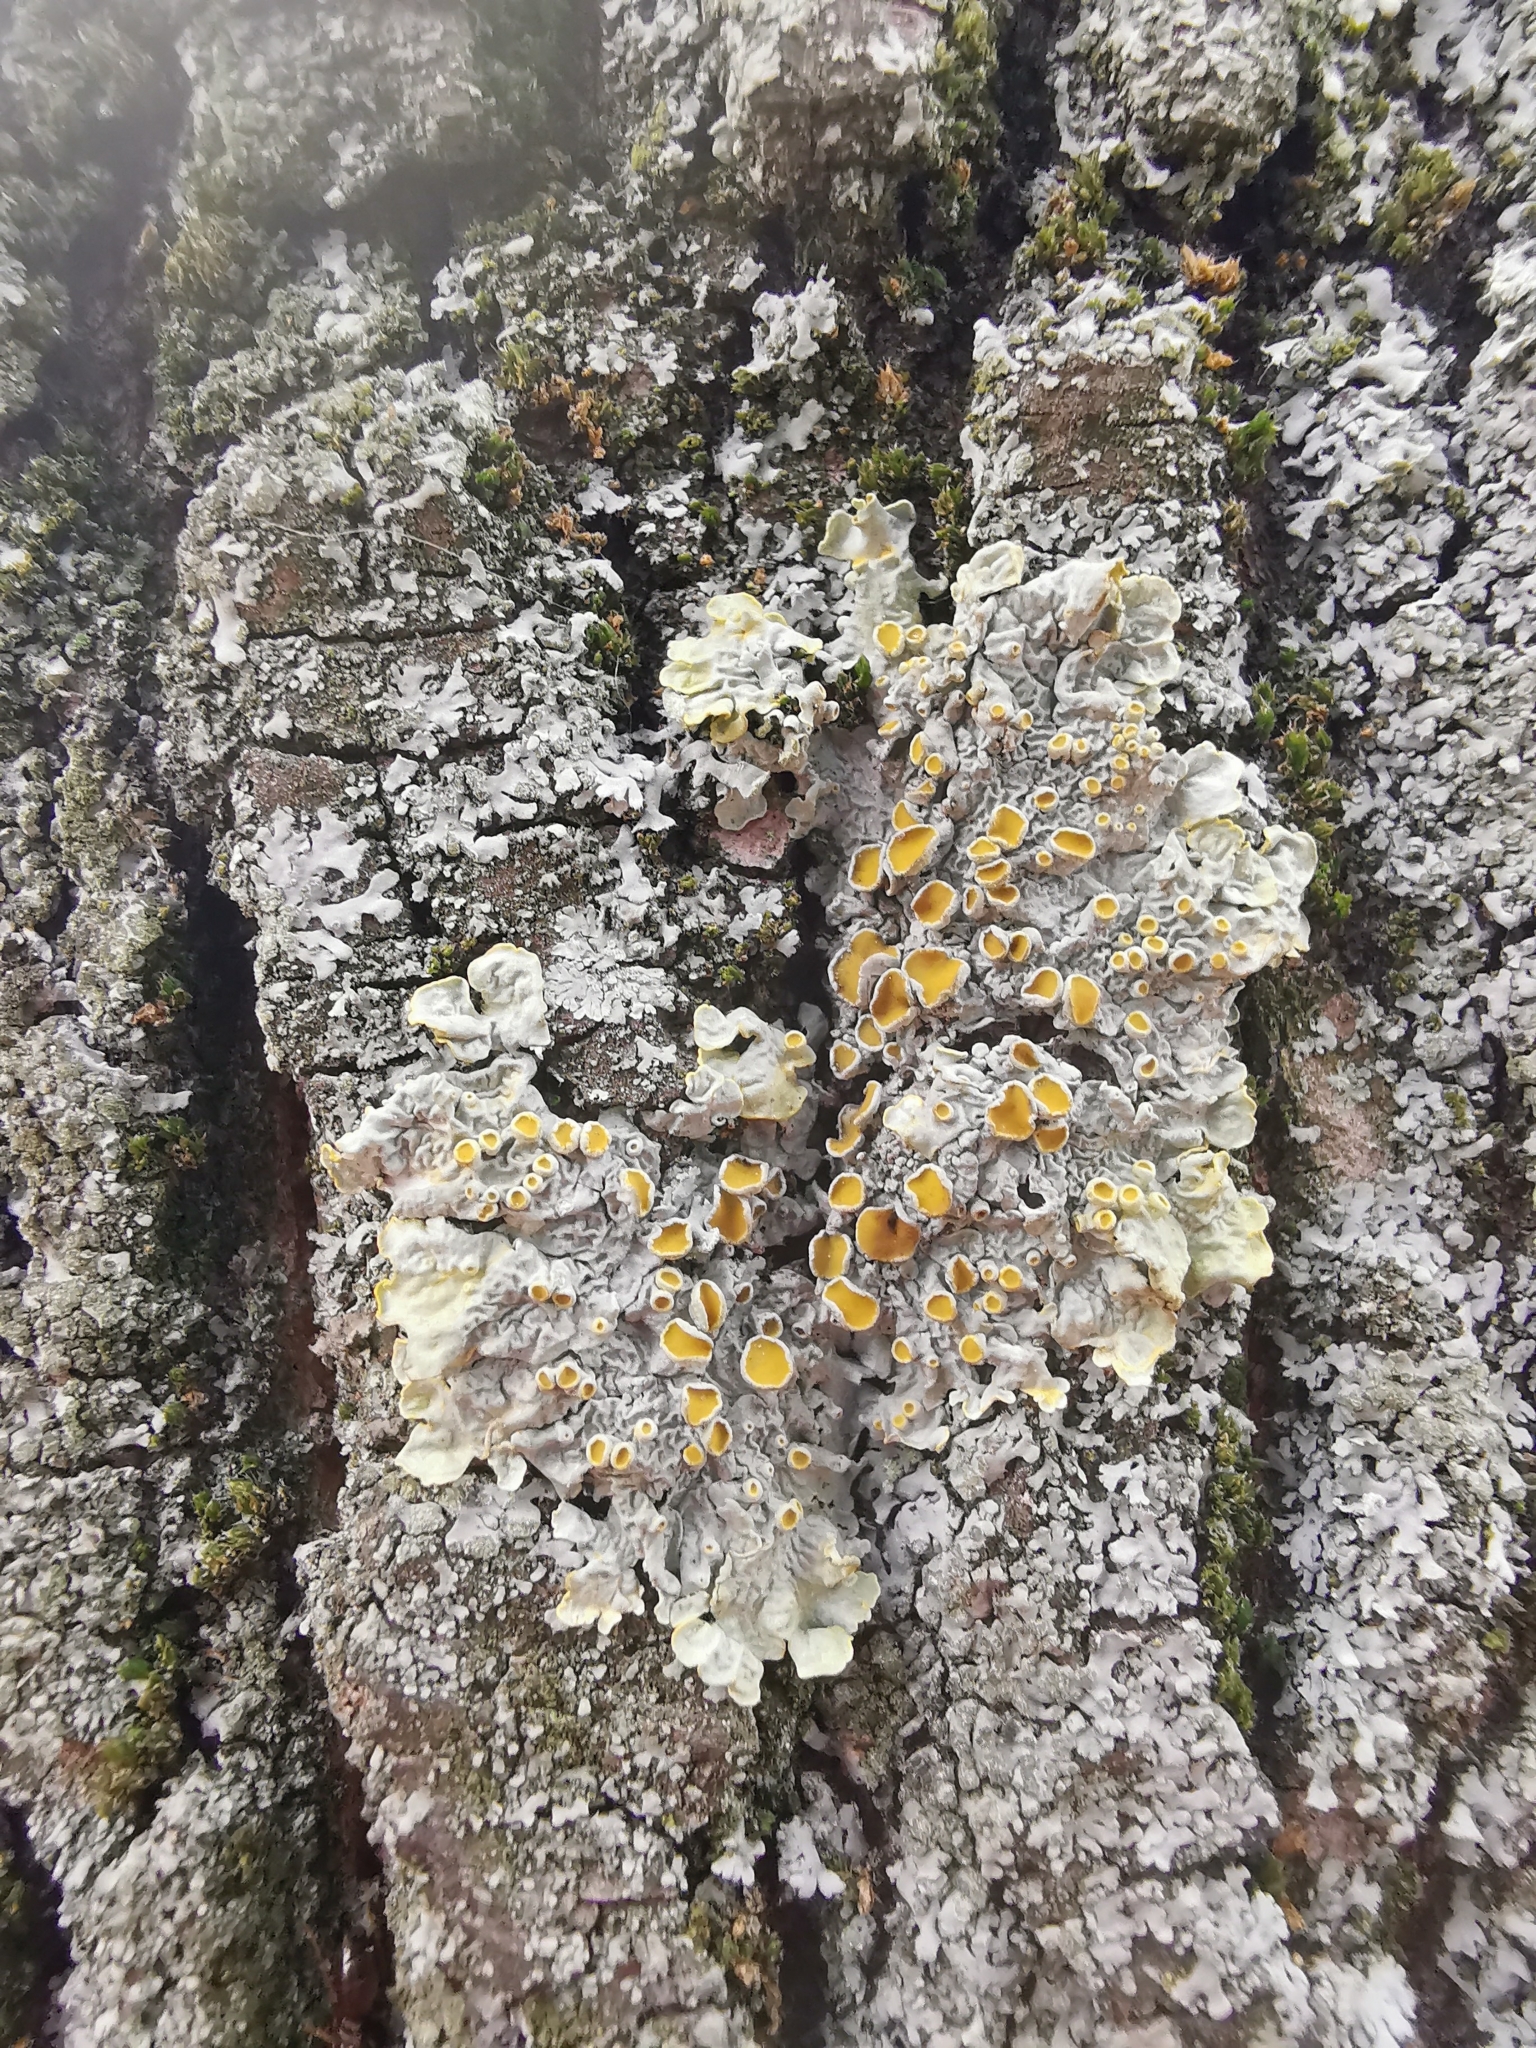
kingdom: Fungi
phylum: Ascomycota
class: Lecanoromycetes
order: Teloschistales
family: Teloschistaceae
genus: Xanthoria
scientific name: Xanthoria parietina
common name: Common orange lichen
